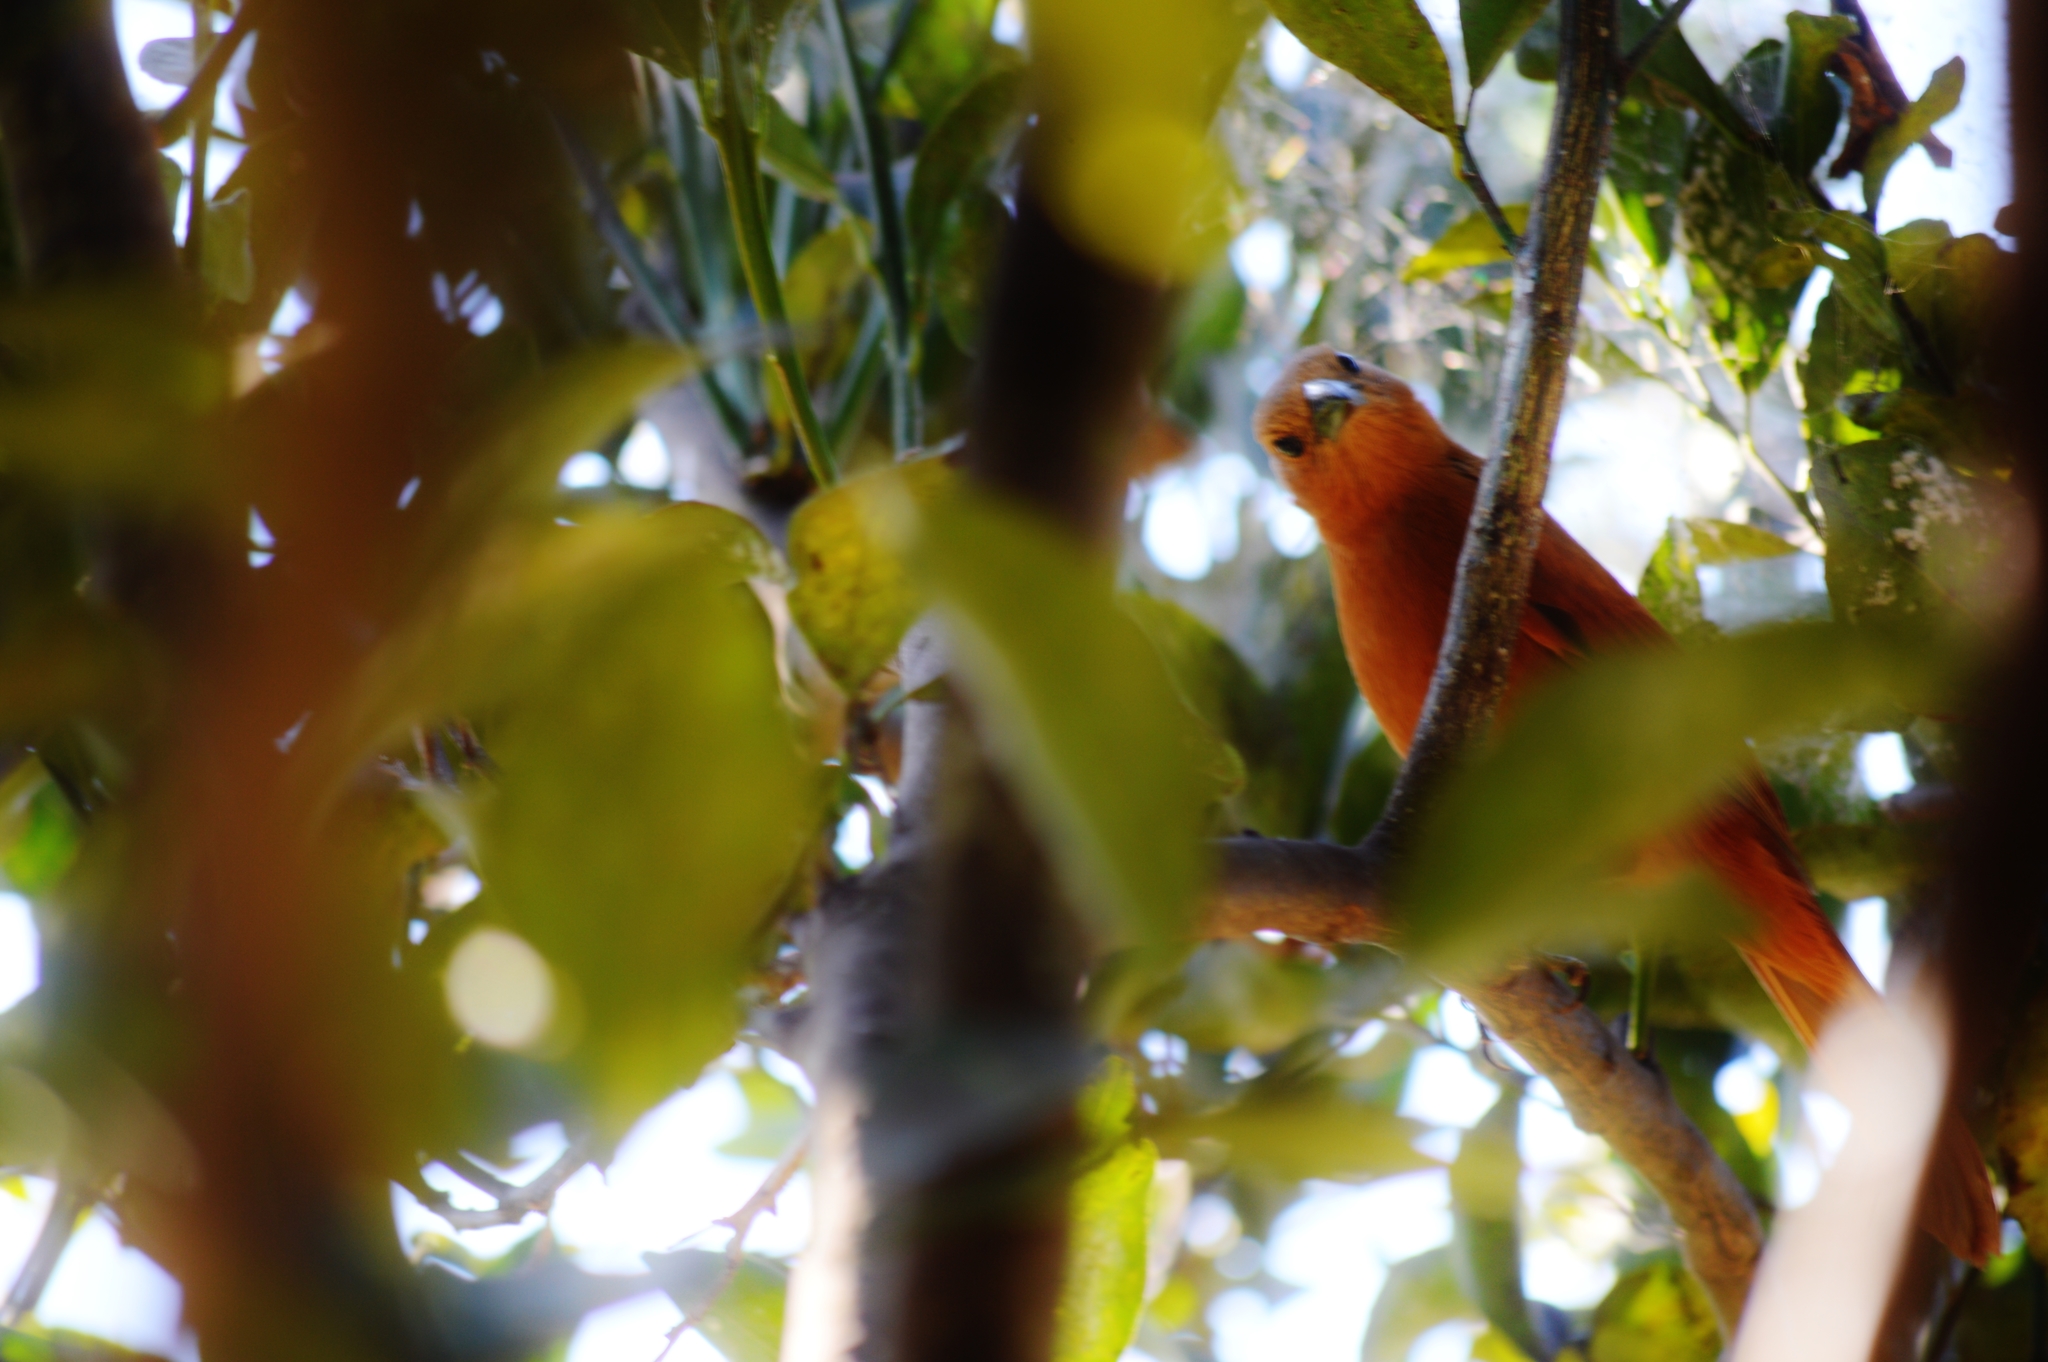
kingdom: Animalia
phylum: Chordata
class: Aves
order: Passeriformes
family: Thraupidae
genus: Tachyphonus
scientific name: Tachyphonus rufus
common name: White-lined tanager
